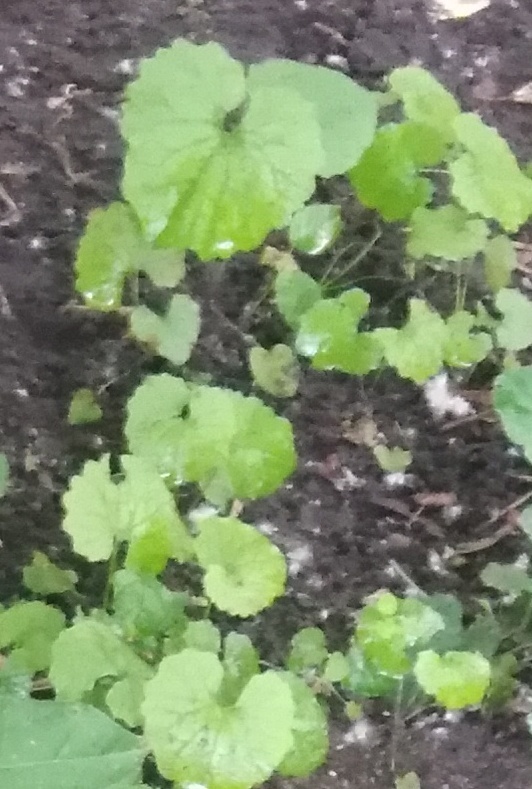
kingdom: Plantae
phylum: Tracheophyta
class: Magnoliopsida
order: Brassicales
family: Brassicaceae
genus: Alliaria
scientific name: Alliaria petiolata
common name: Garlic mustard
